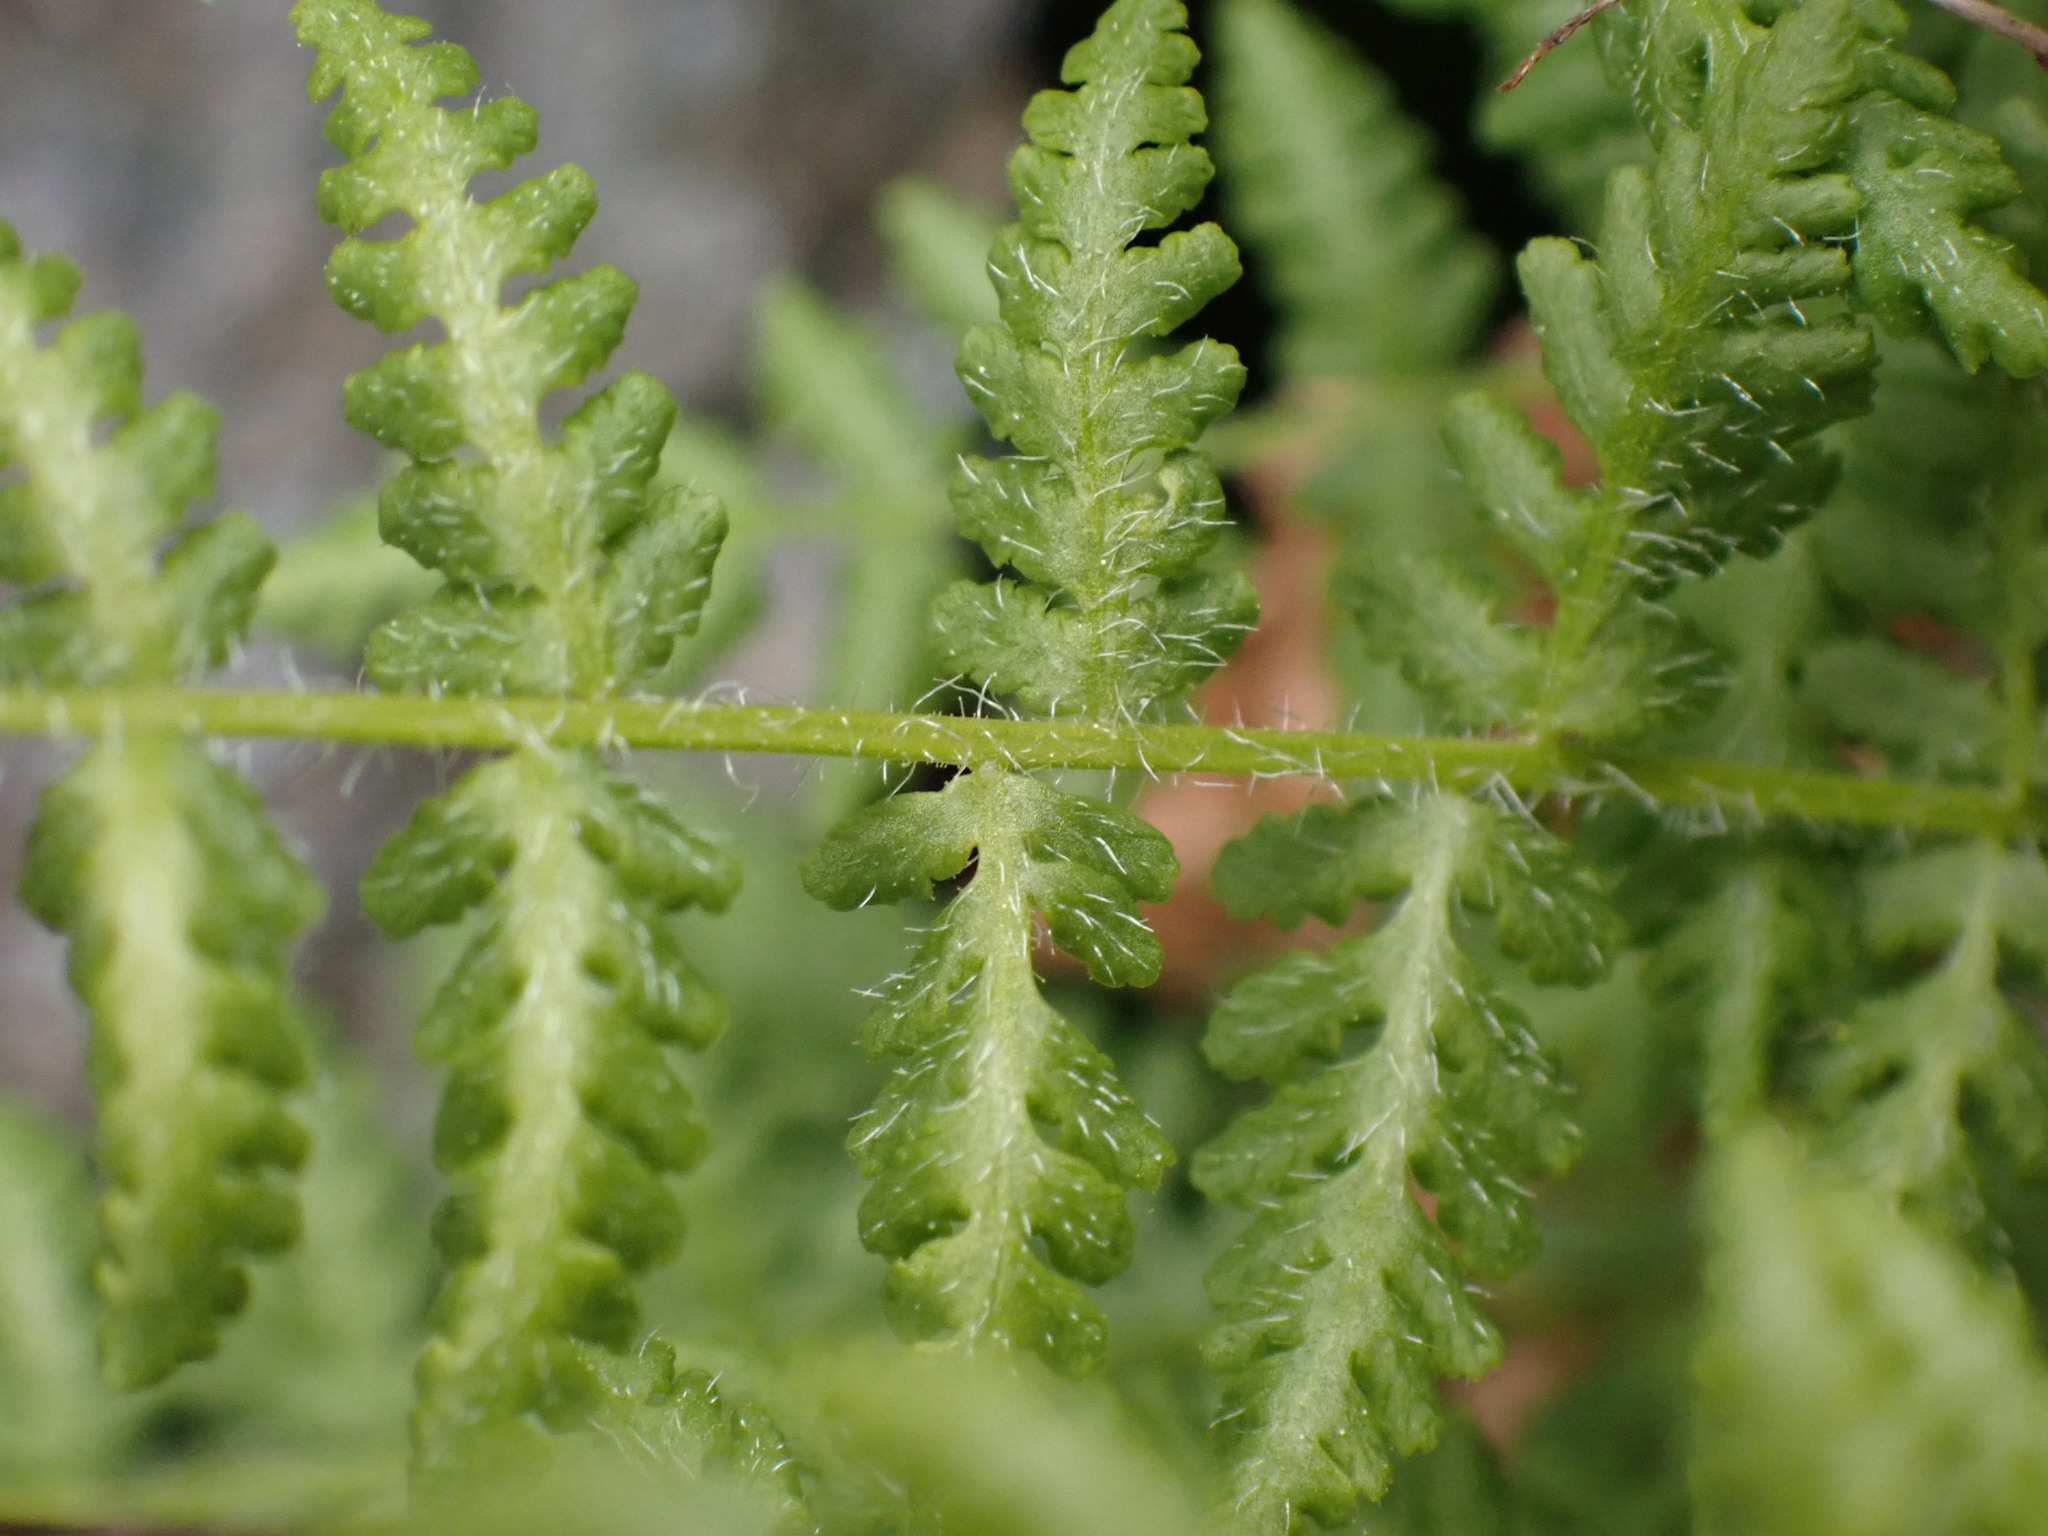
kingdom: Plantae
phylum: Tracheophyta
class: Polypodiopsida
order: Polypodiales
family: Woodsiaceae
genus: Physematium
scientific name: Physematium scopulinum
